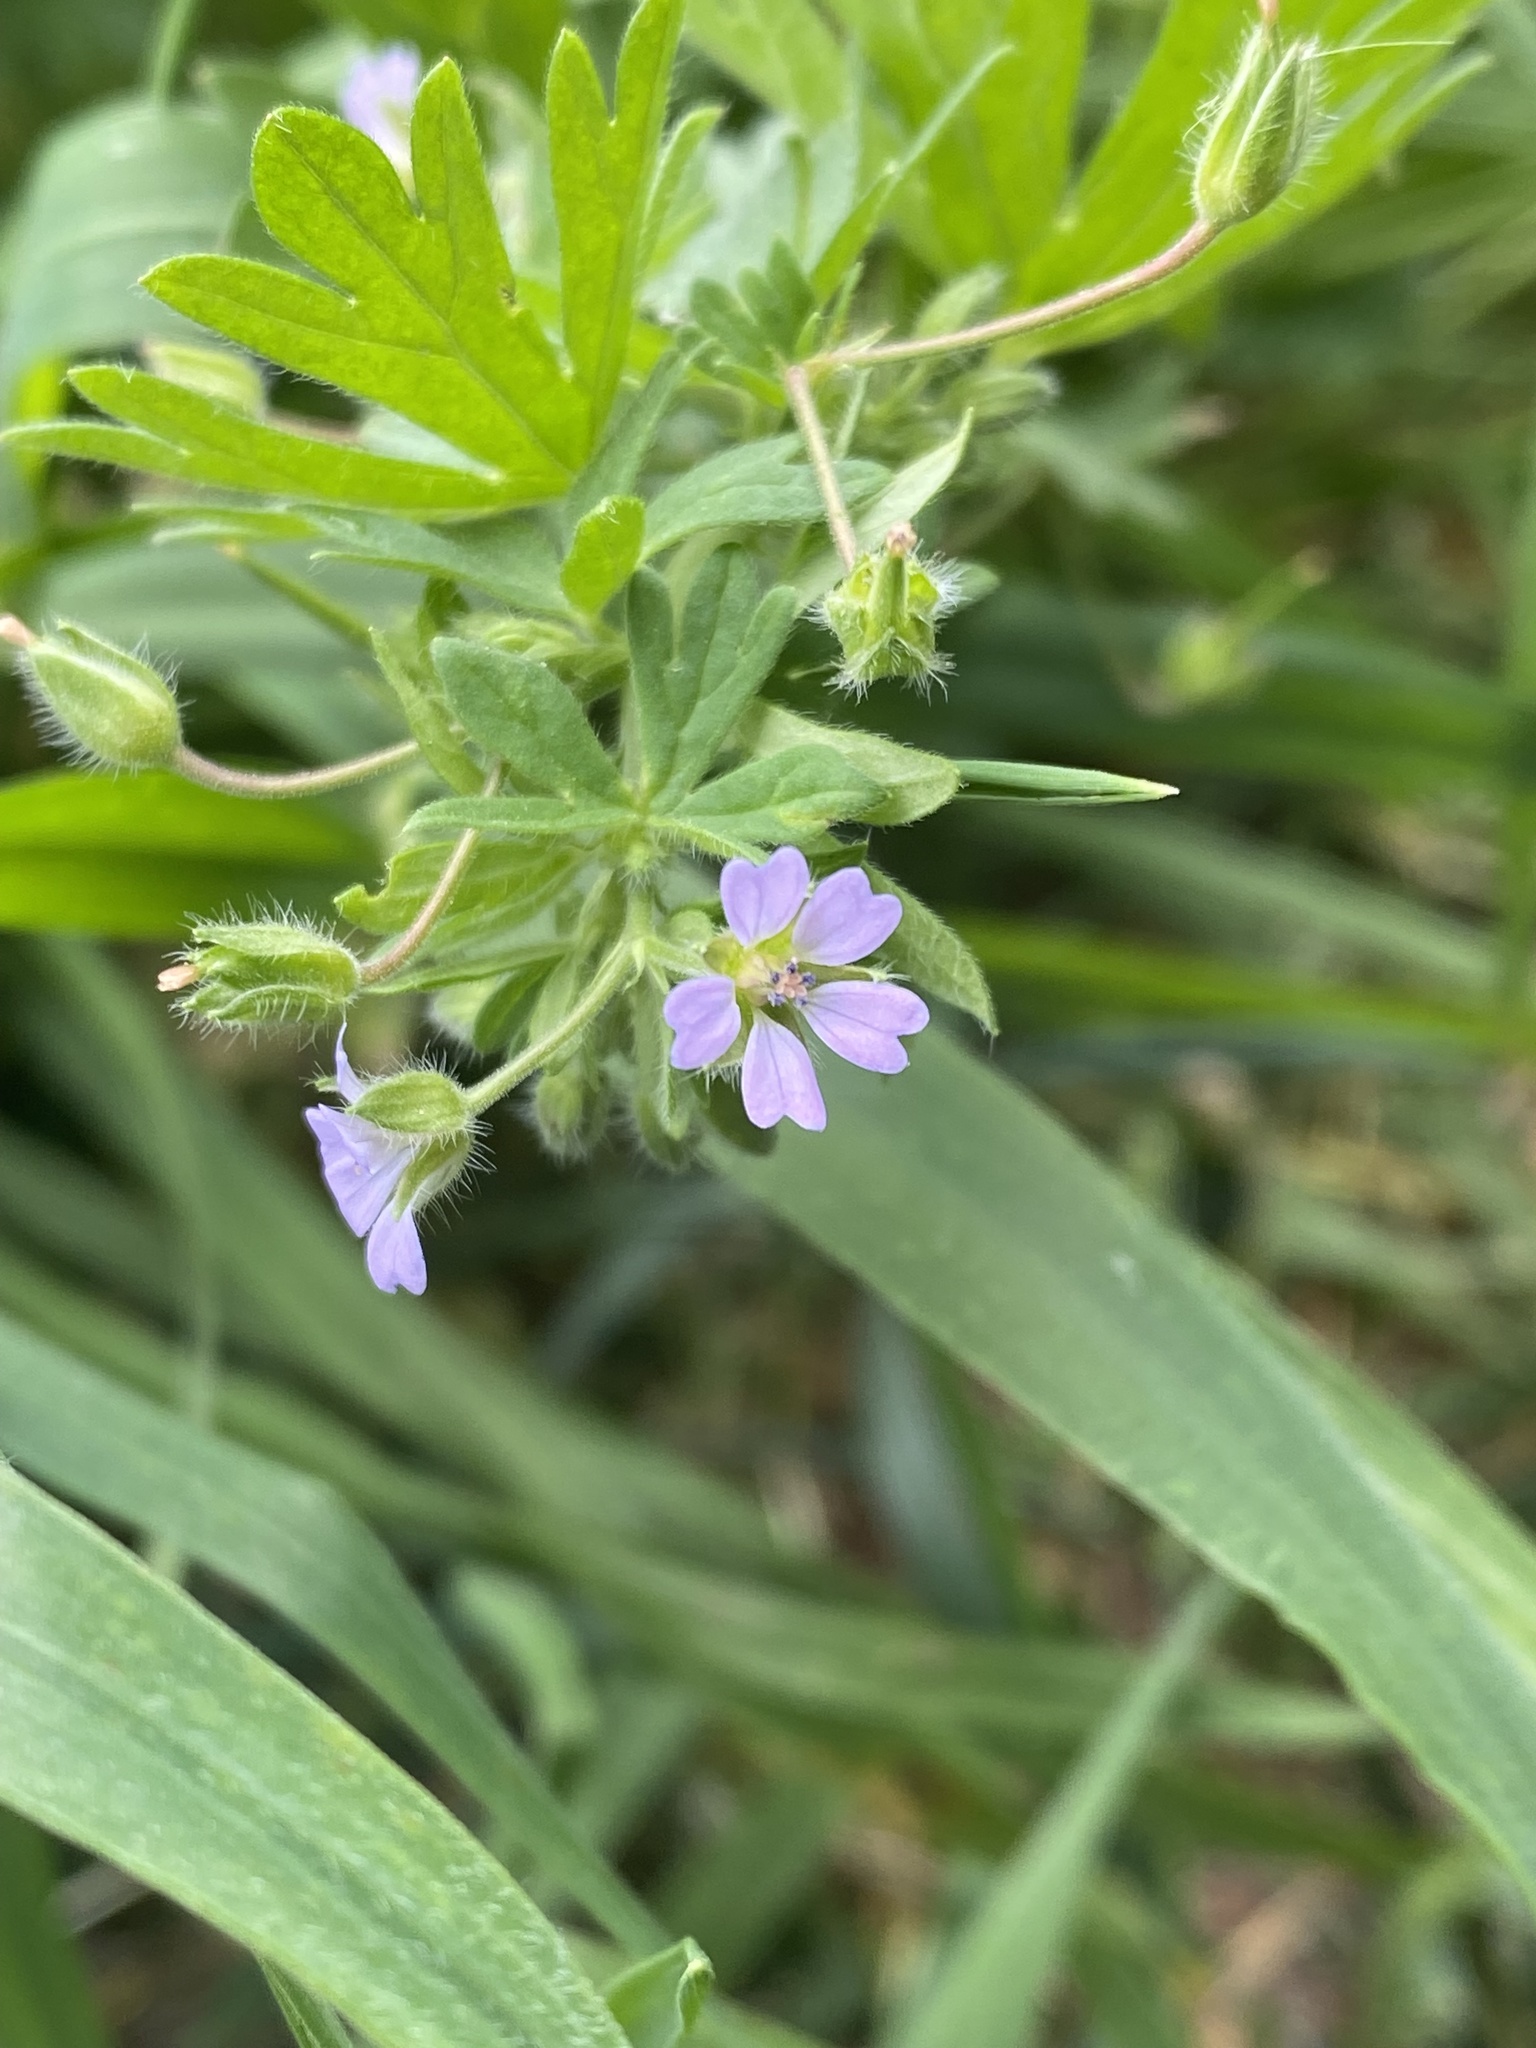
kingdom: Plantae
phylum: Tracheophyta
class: Magnoliopsida
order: Geraniales
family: Geraniaceae
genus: Geranium
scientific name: Geranium pusillum
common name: Small geranium
